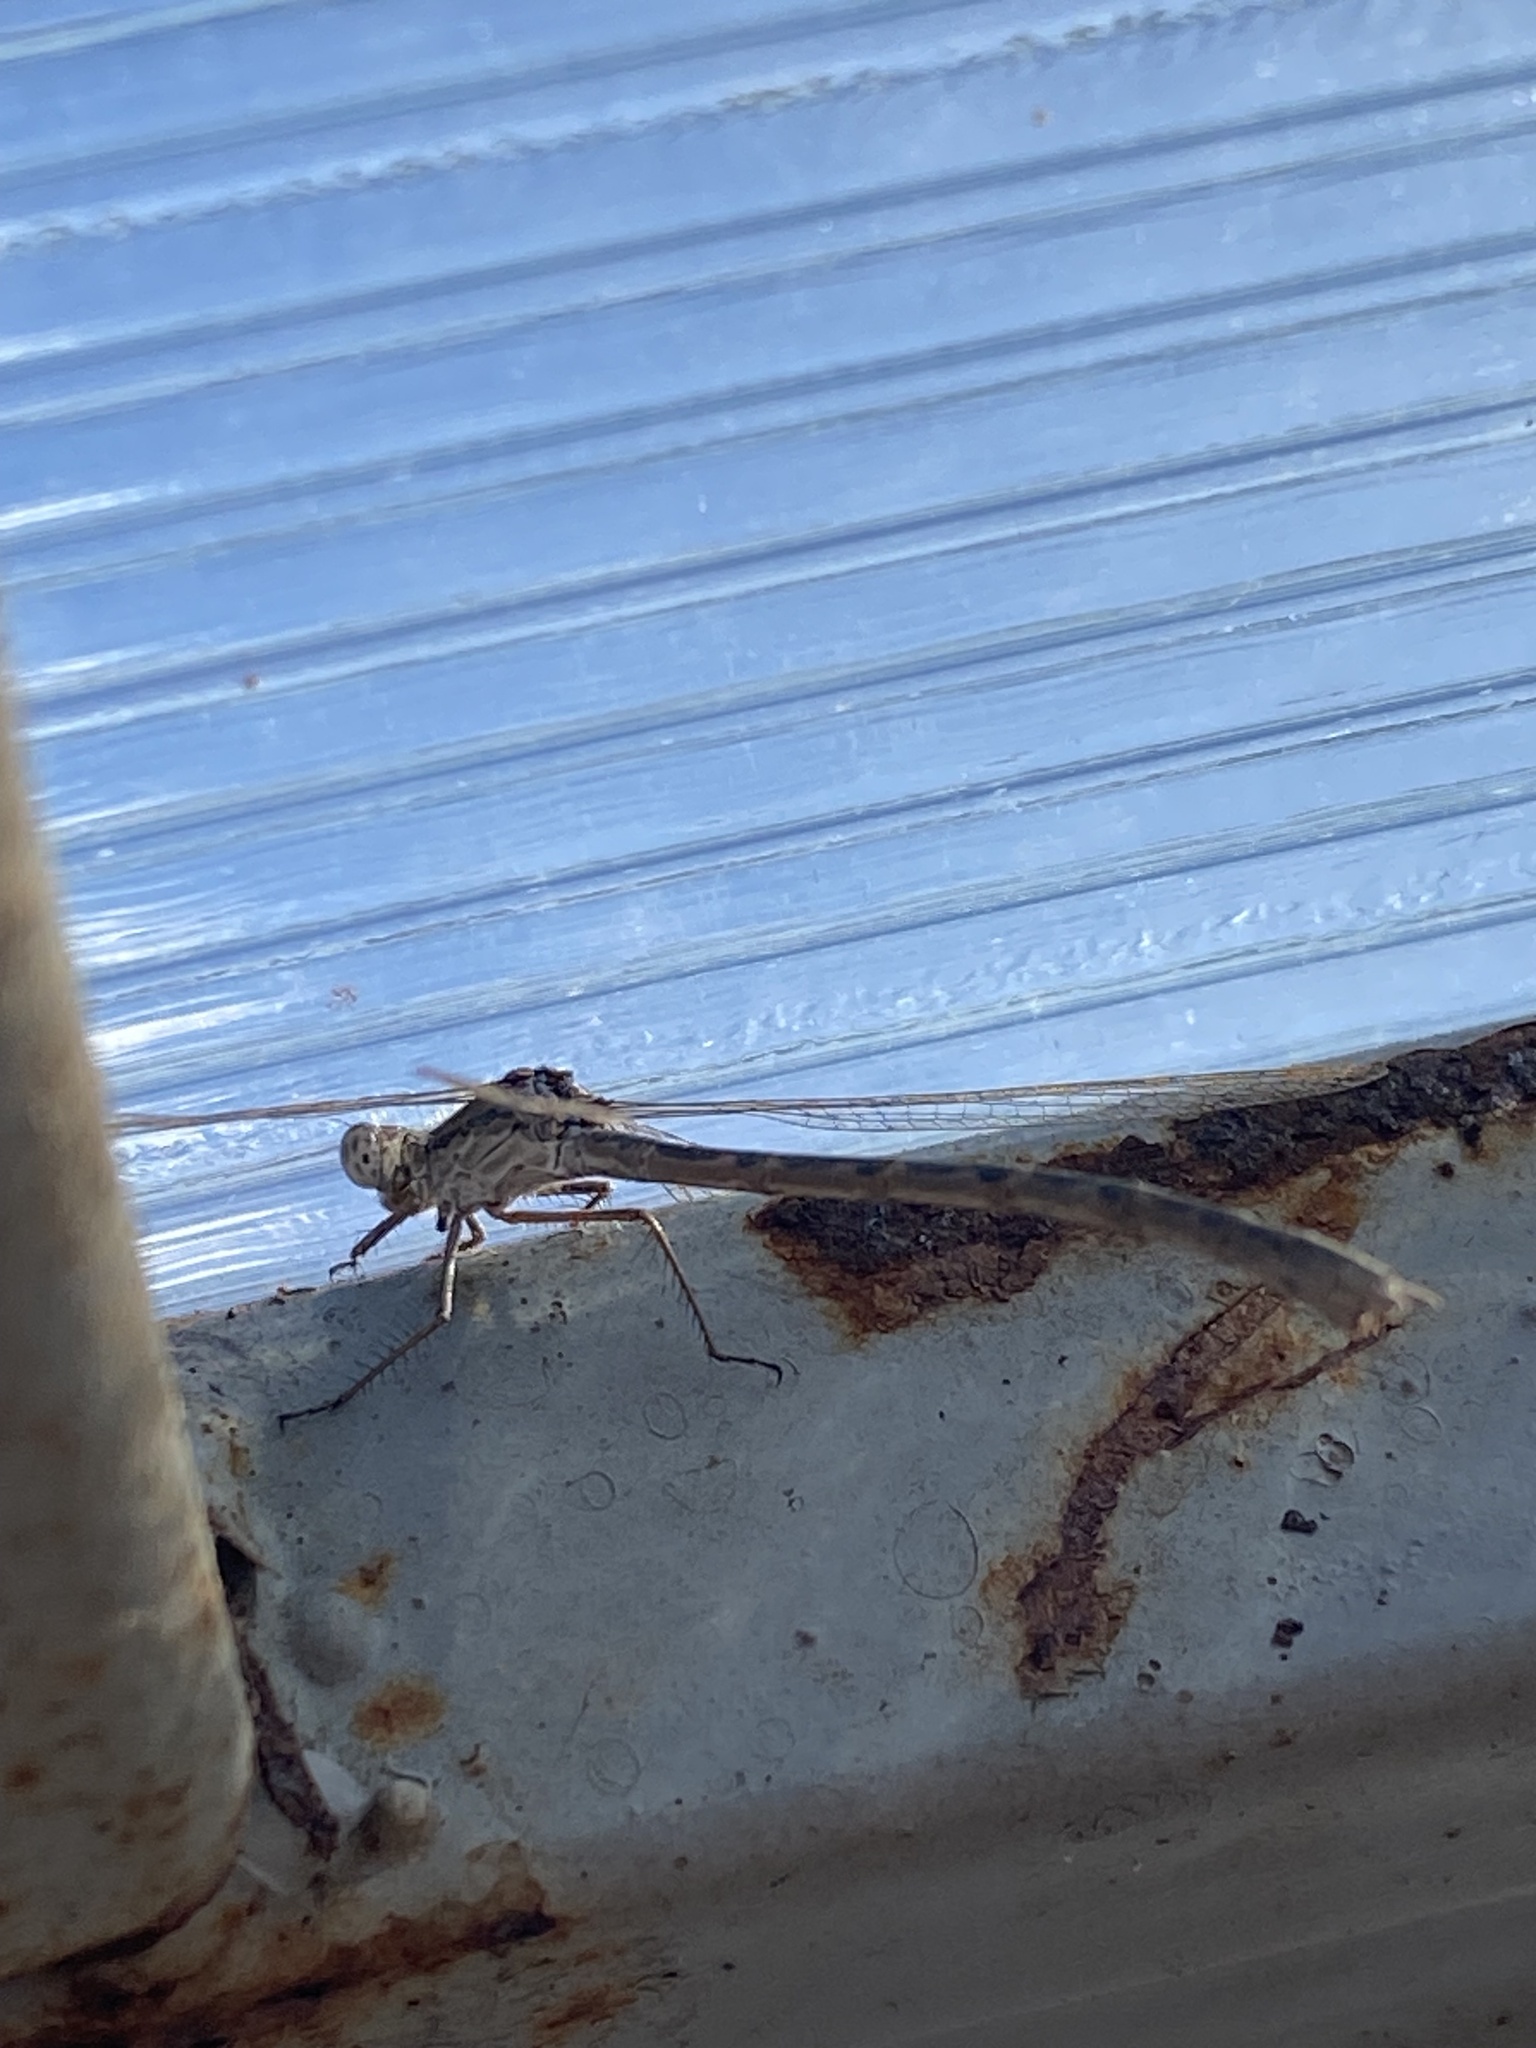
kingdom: Animalia
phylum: Arthropoda
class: Insecta
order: Odonata
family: Lestidae
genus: Sympecma
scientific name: Sympecma paedisca
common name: Siberian winter damsel
